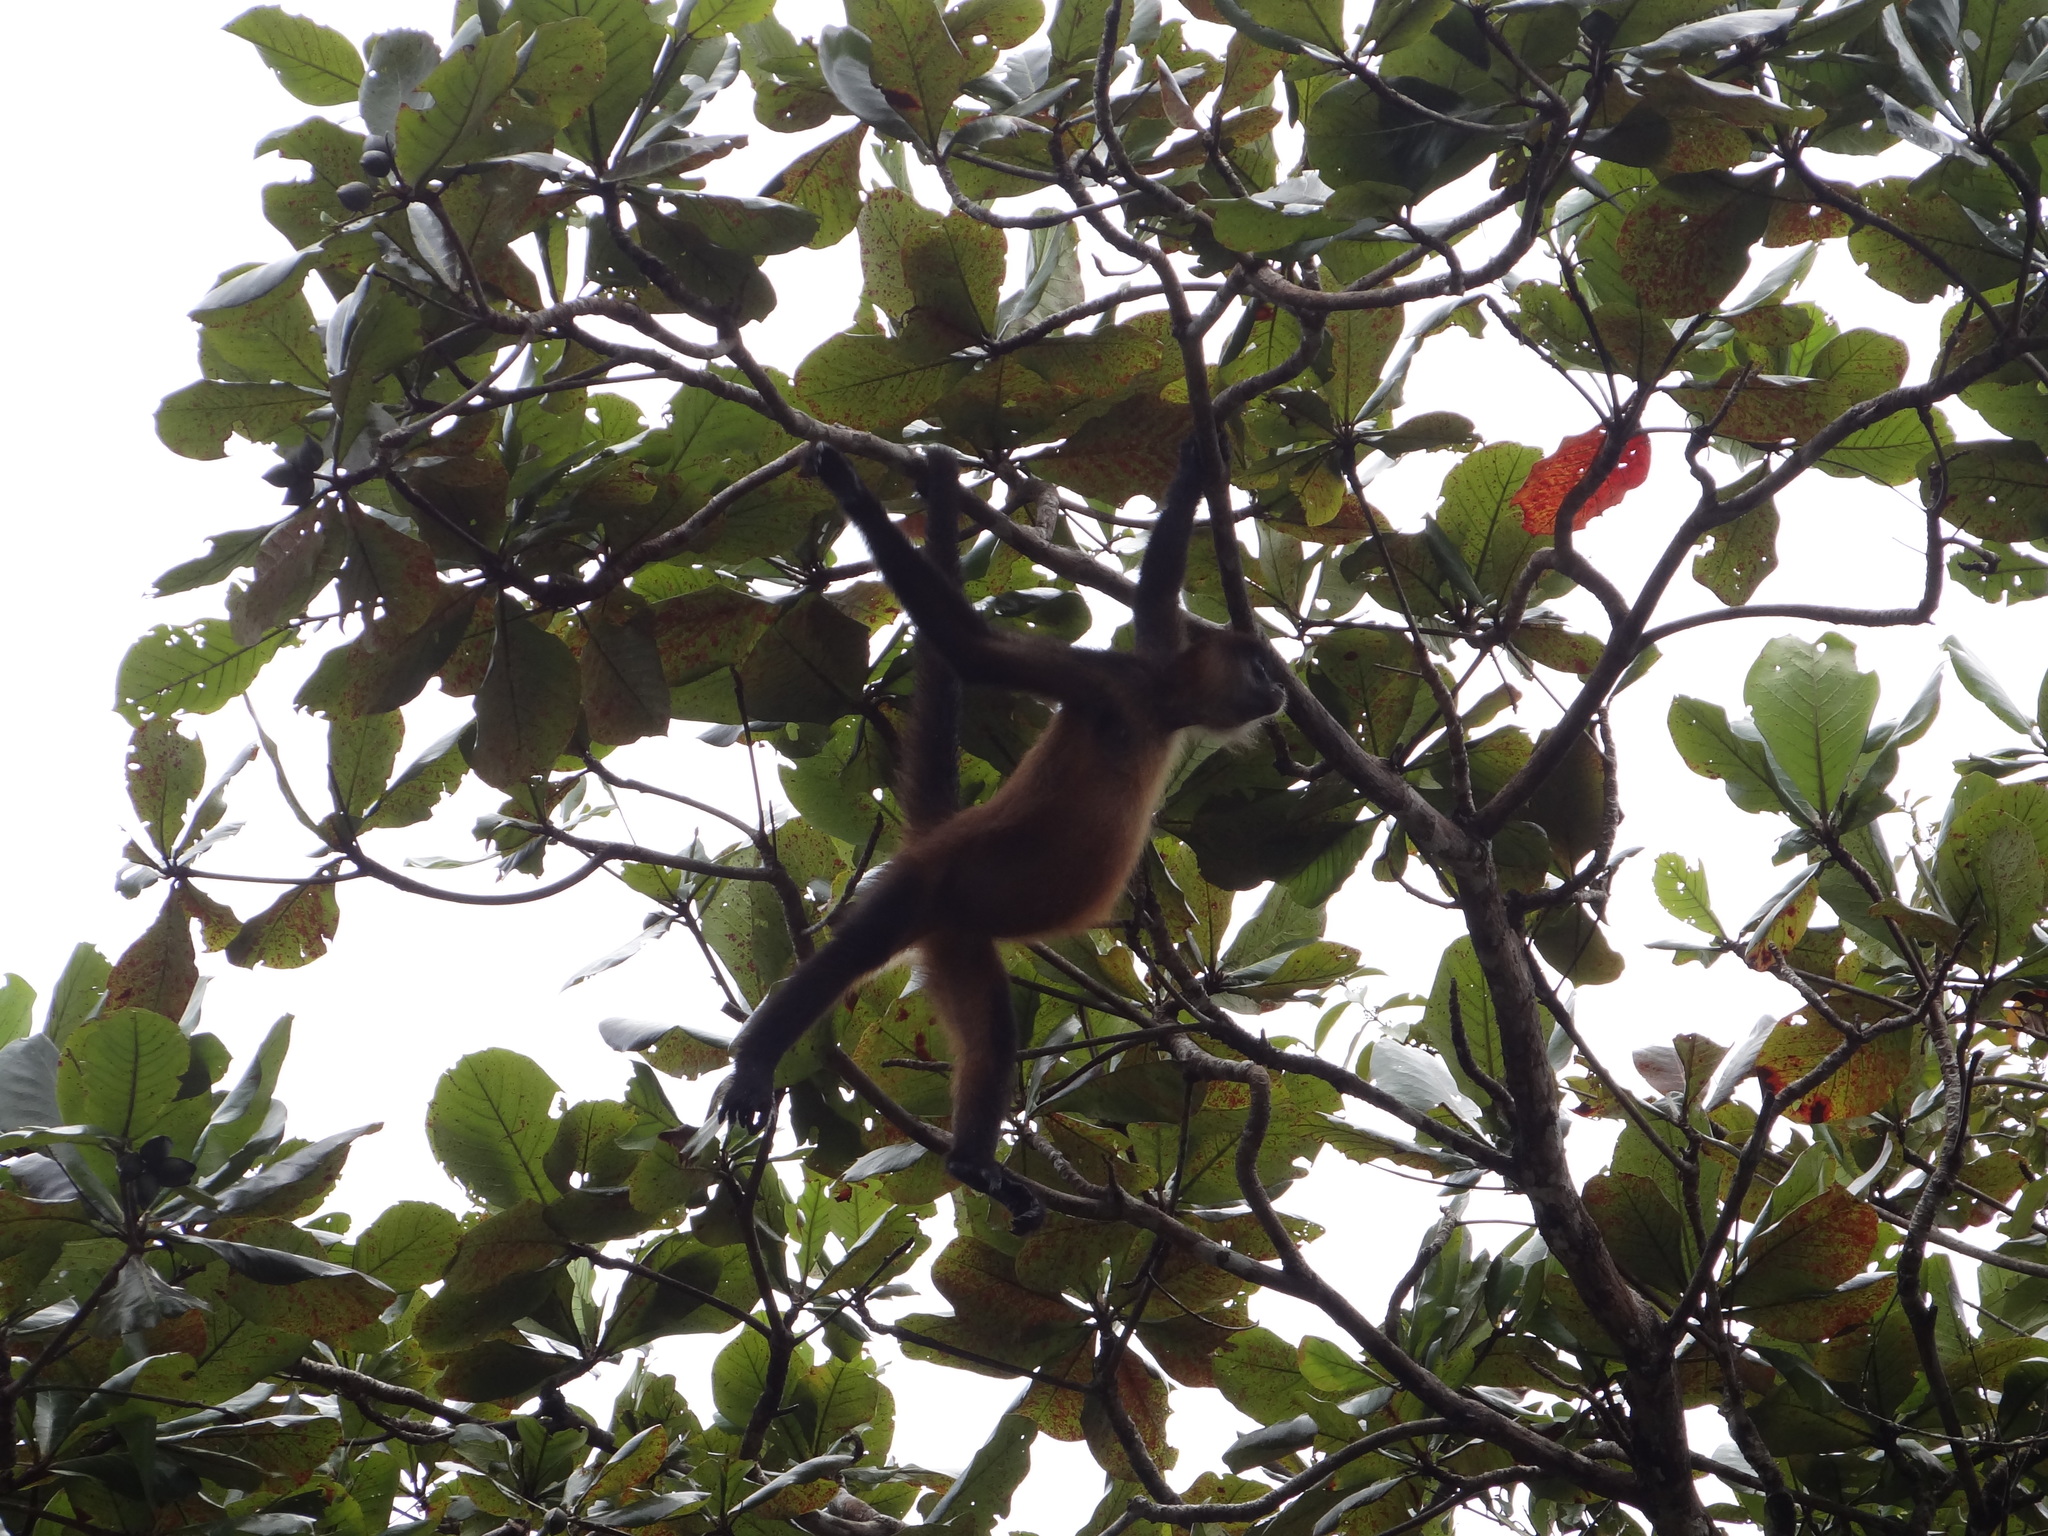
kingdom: Animalia
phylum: Chordata
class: Mammalia
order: Primates
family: Atelidae
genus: Ateles
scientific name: Ateles geoffroyi
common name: Black-handed spider monkey
